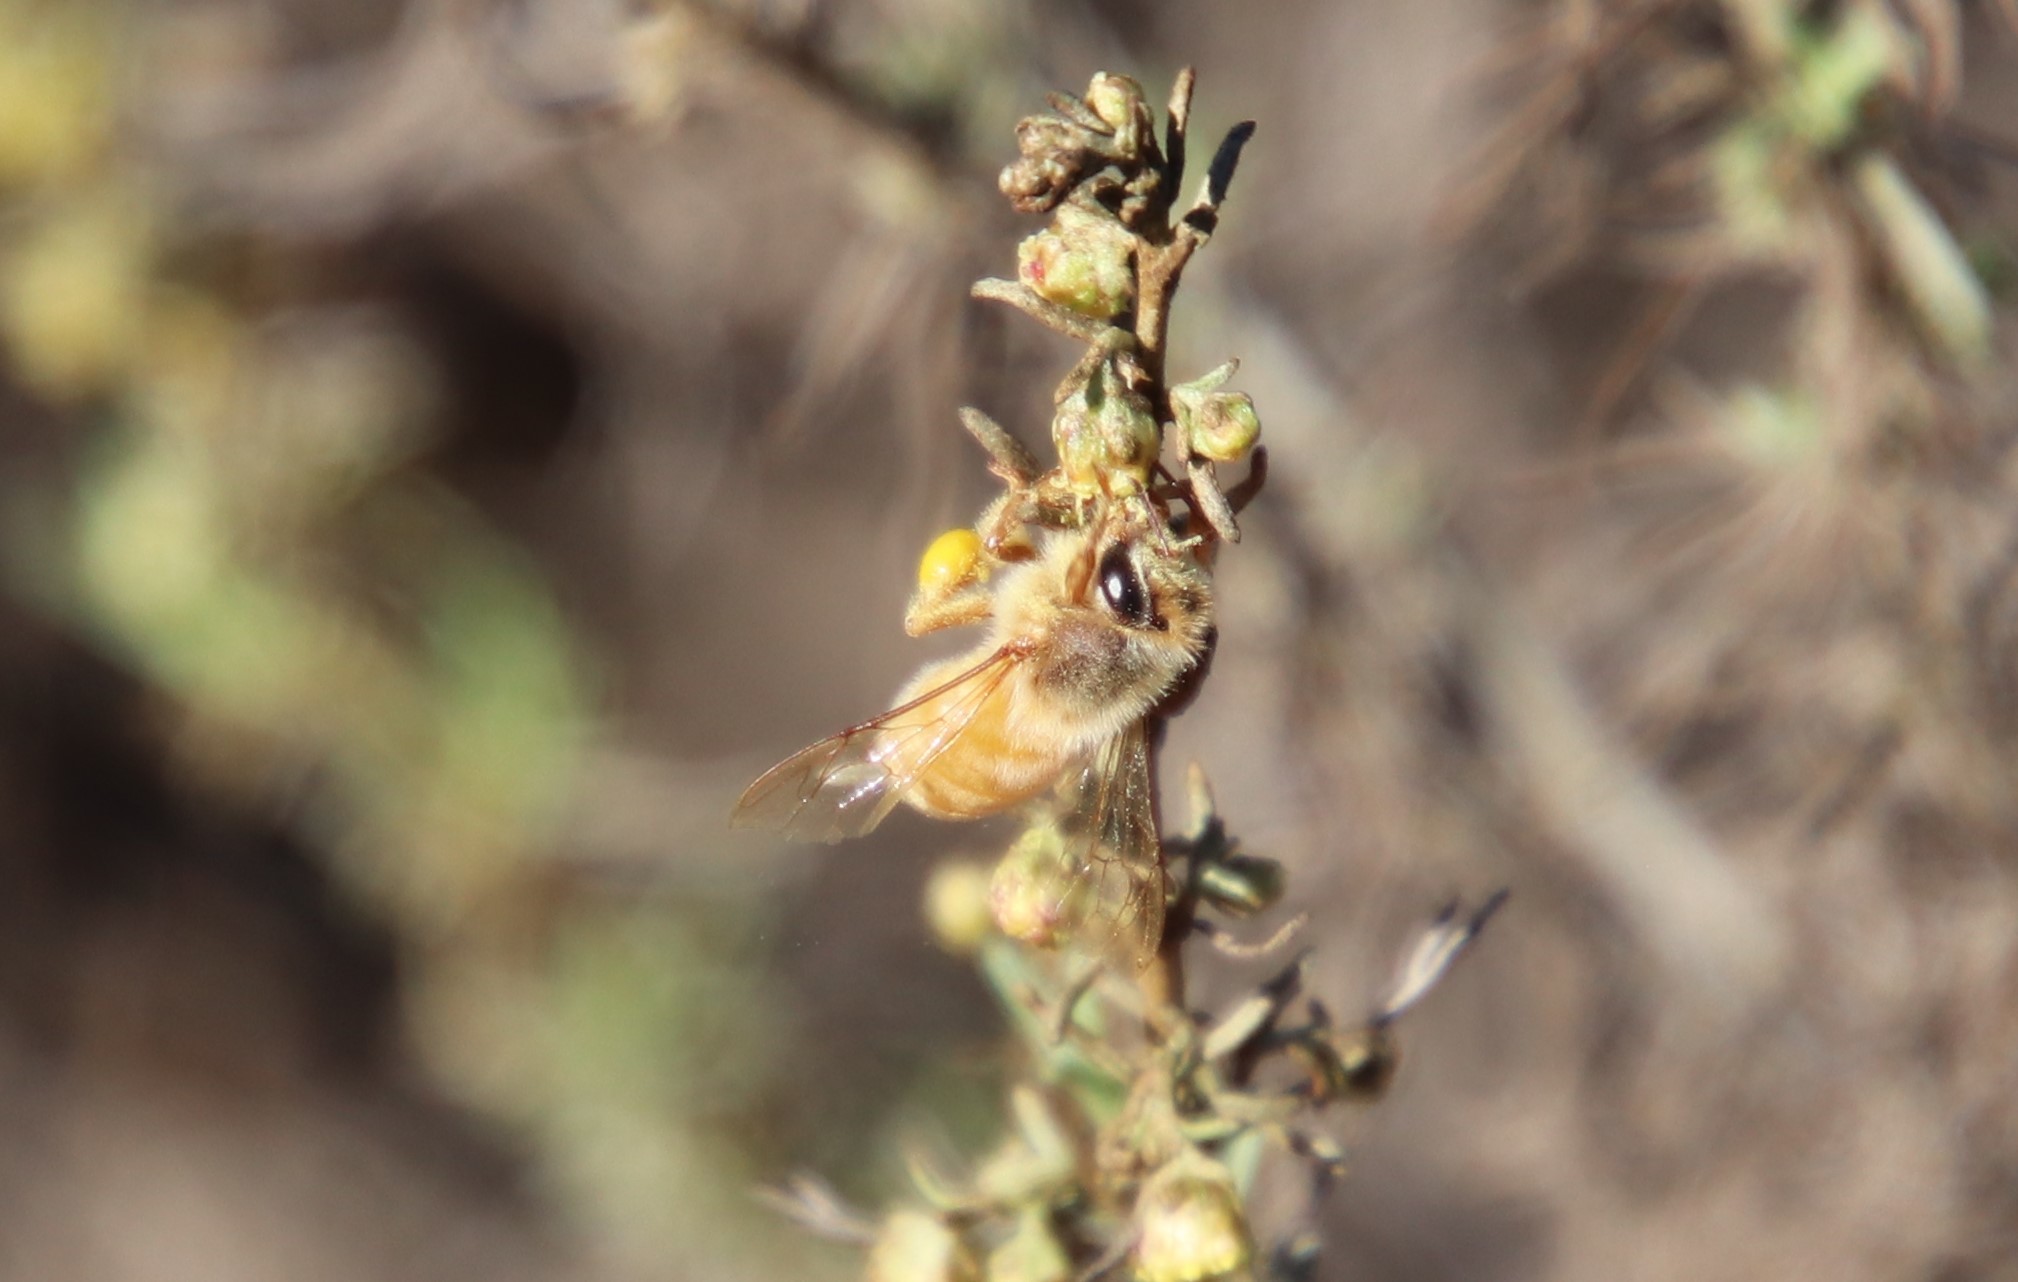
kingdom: Animalia
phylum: Arthropoda
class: Insecta
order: Hymenoptera
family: Apidae
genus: Apis
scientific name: Apis mellifera
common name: Honey bee
